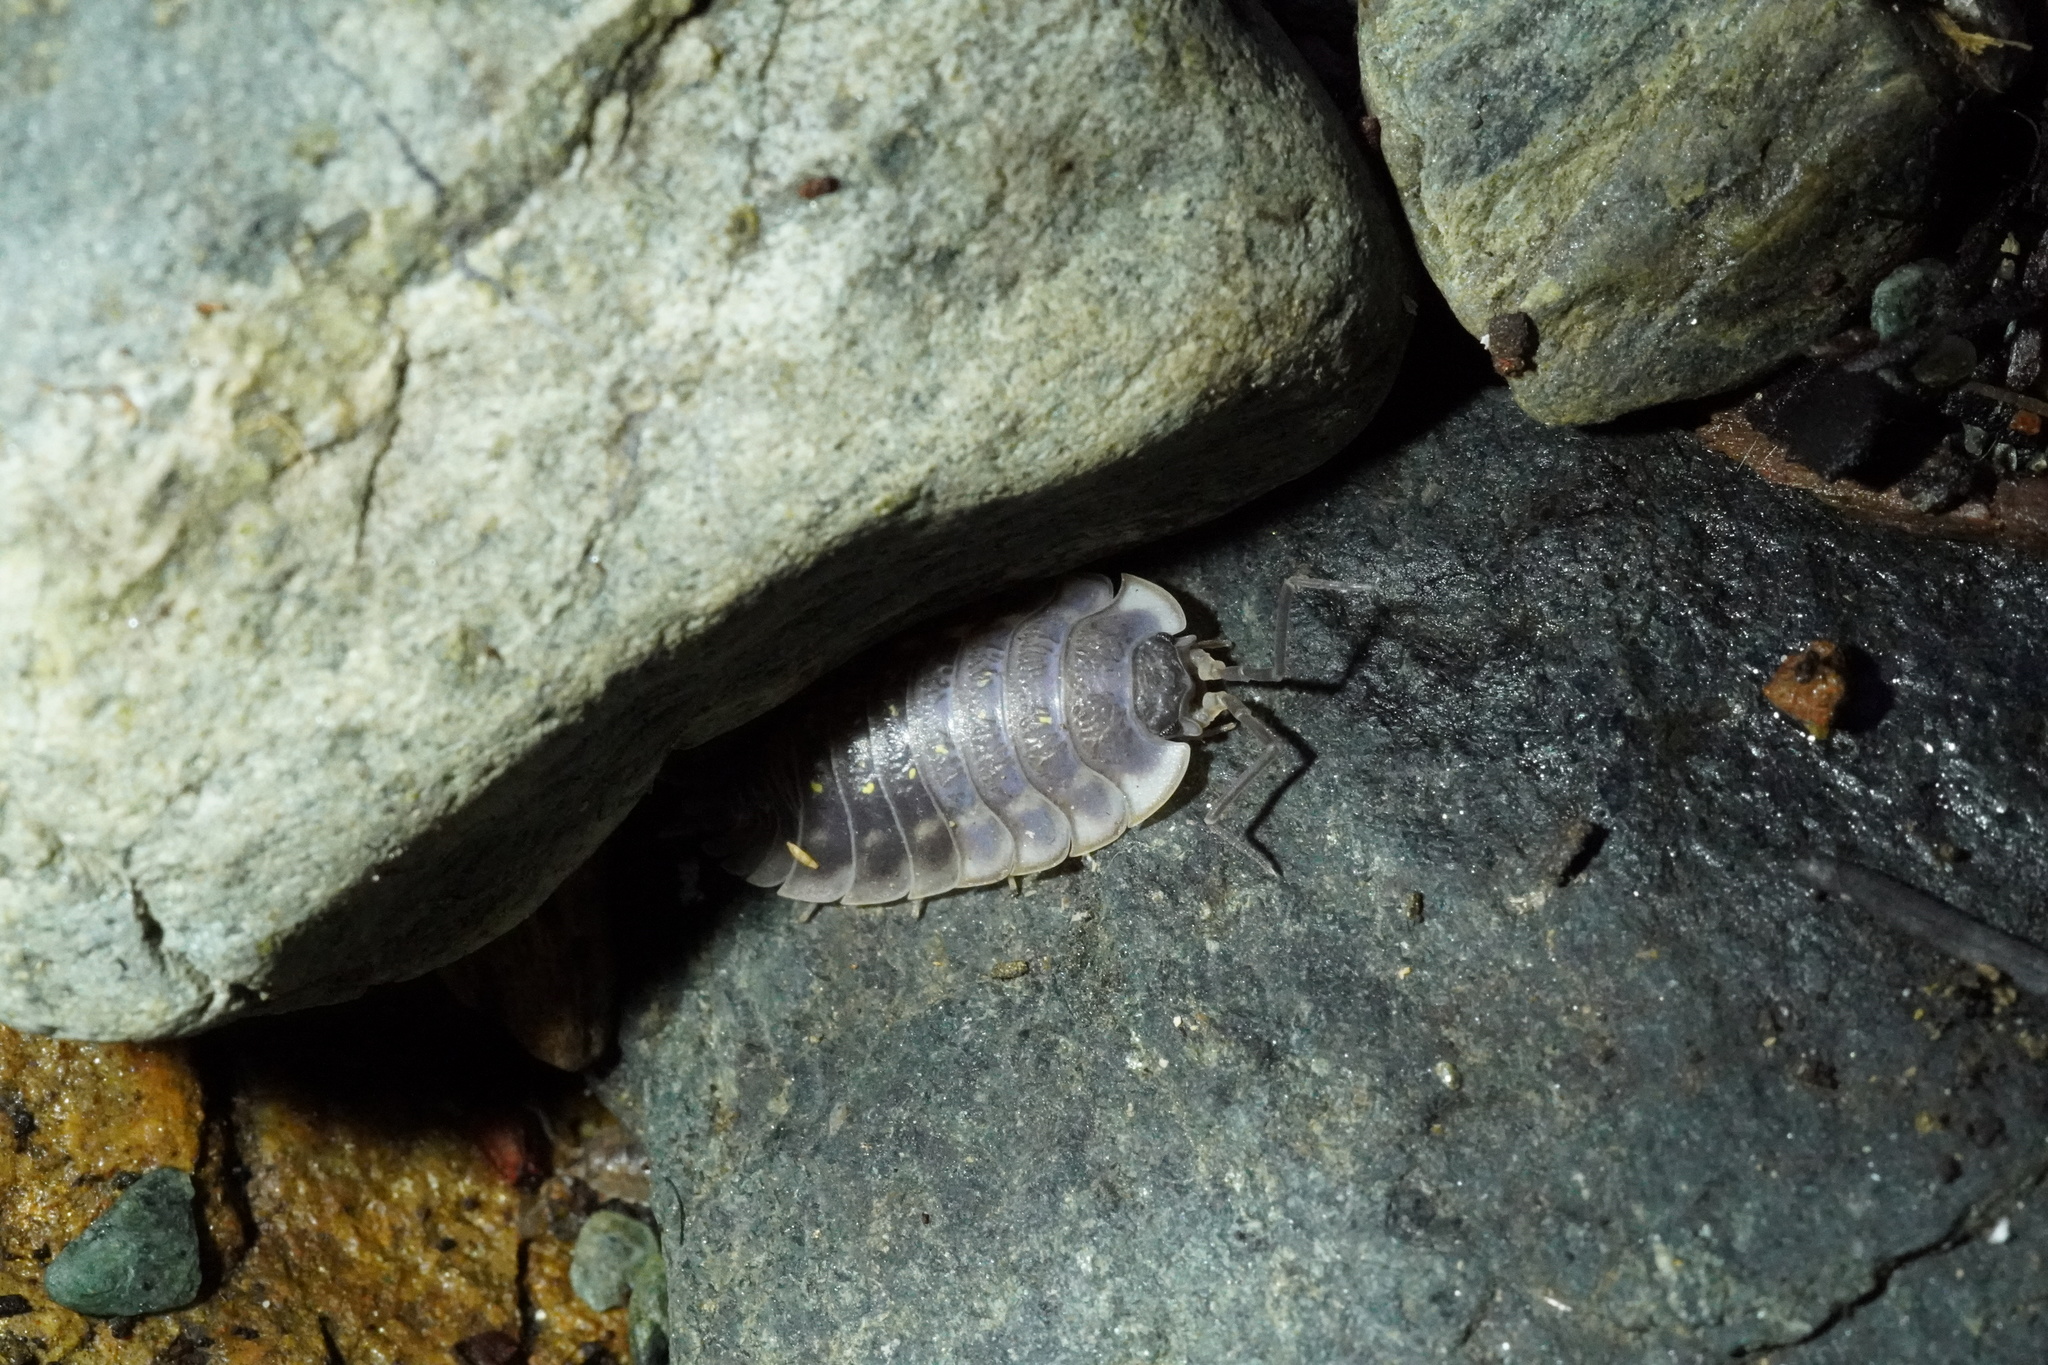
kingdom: Animalia
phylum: Arthropoda
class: Malacostraca
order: Isopoda
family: Oniscidae
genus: Oniscus
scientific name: Oniscus asellus
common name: Common shiny woodlouse
